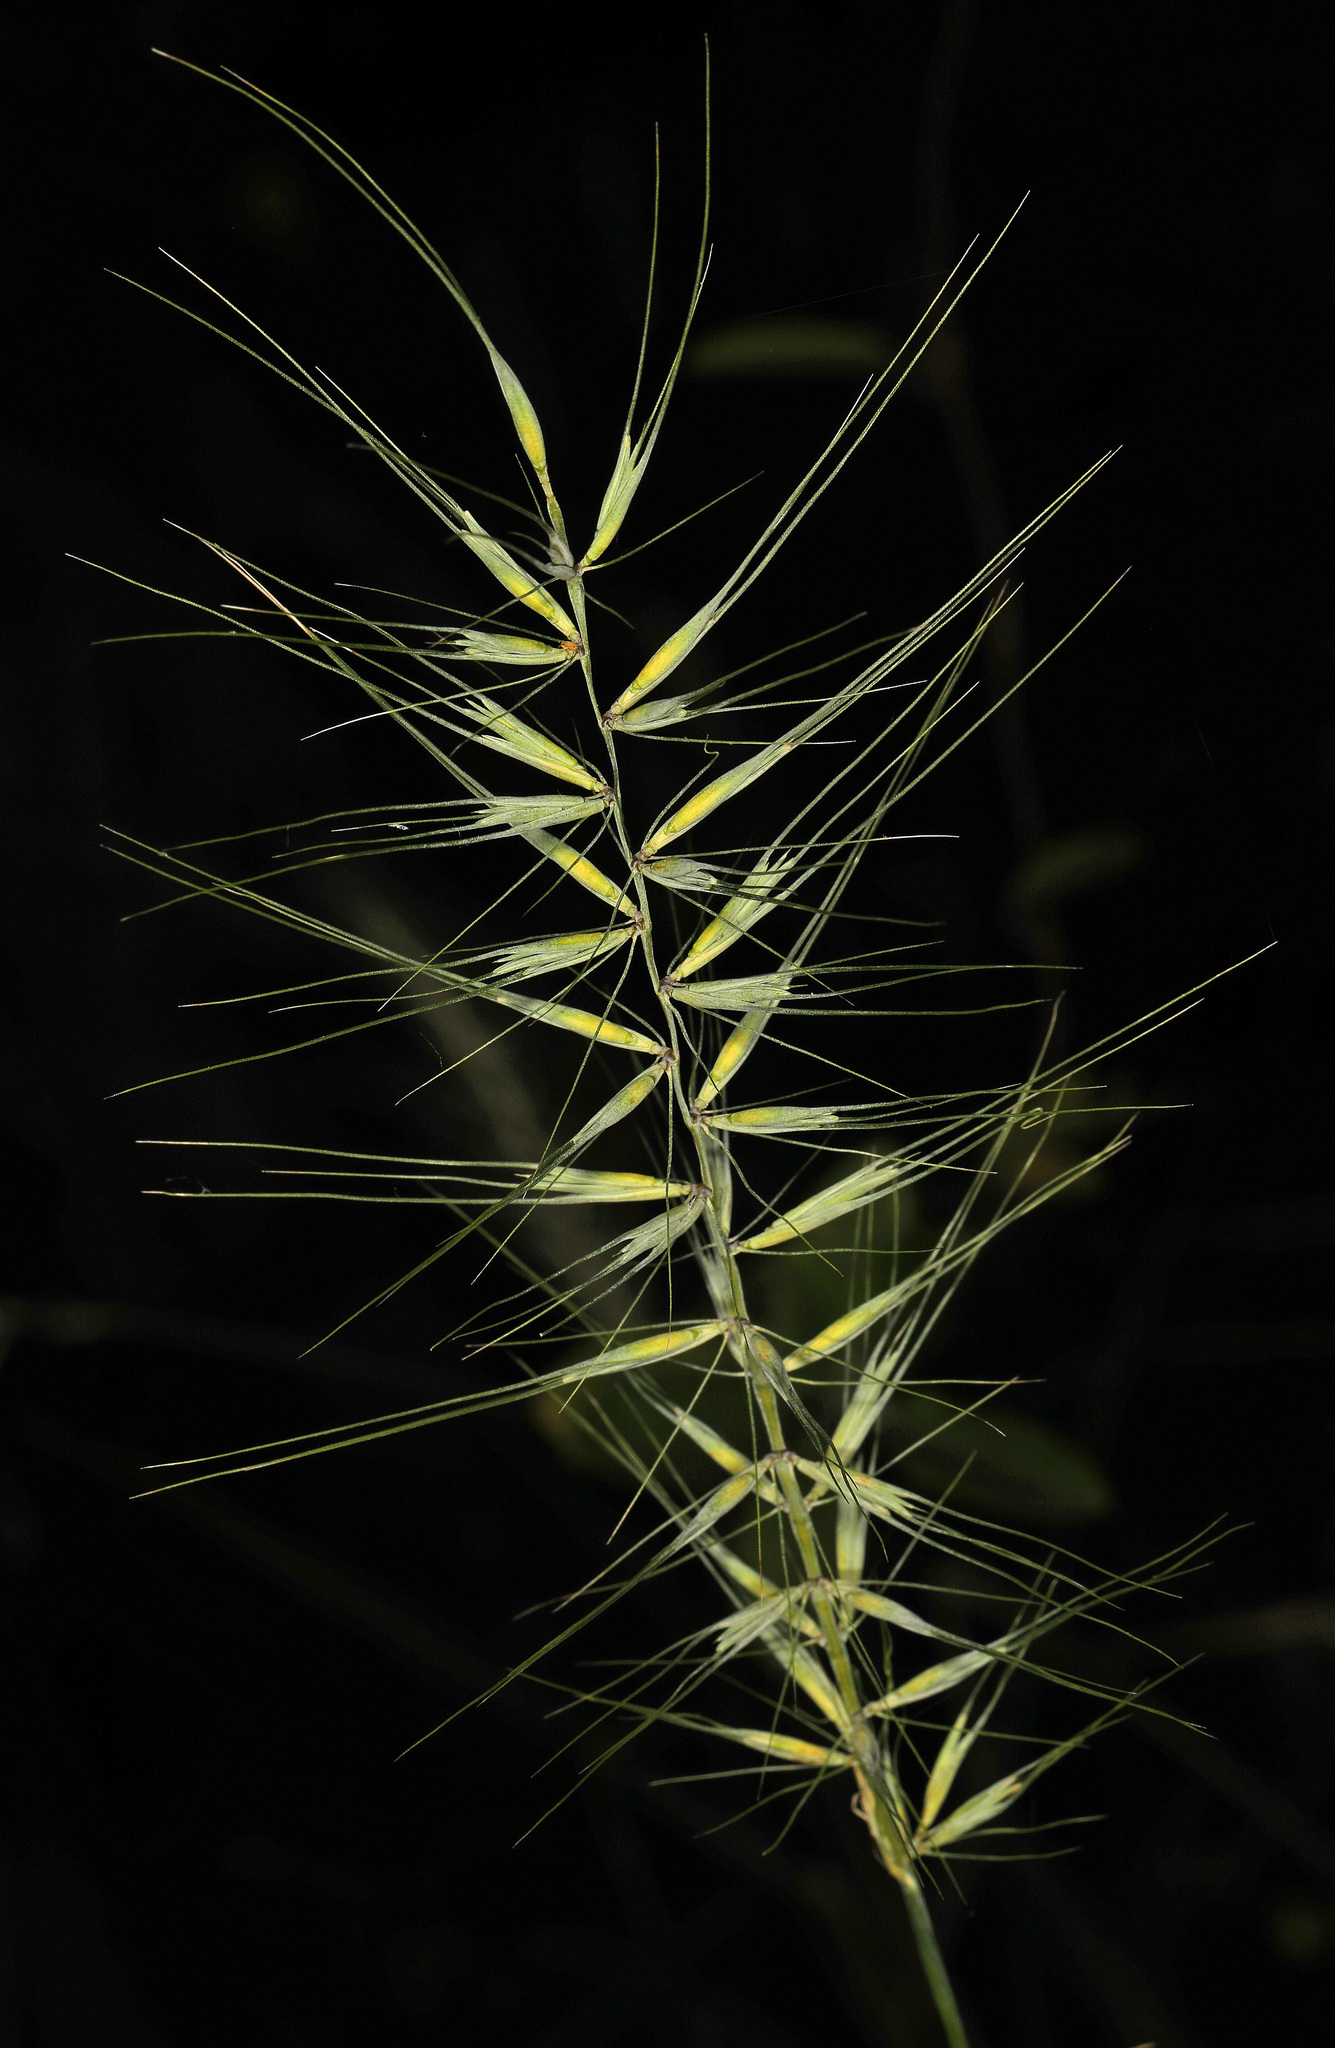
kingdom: Plantae
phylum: Tracheophyta
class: Liliopsida
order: Poales
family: Poaceae
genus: Elymus
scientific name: Elymus hystrix
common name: Bottlebrush grass
